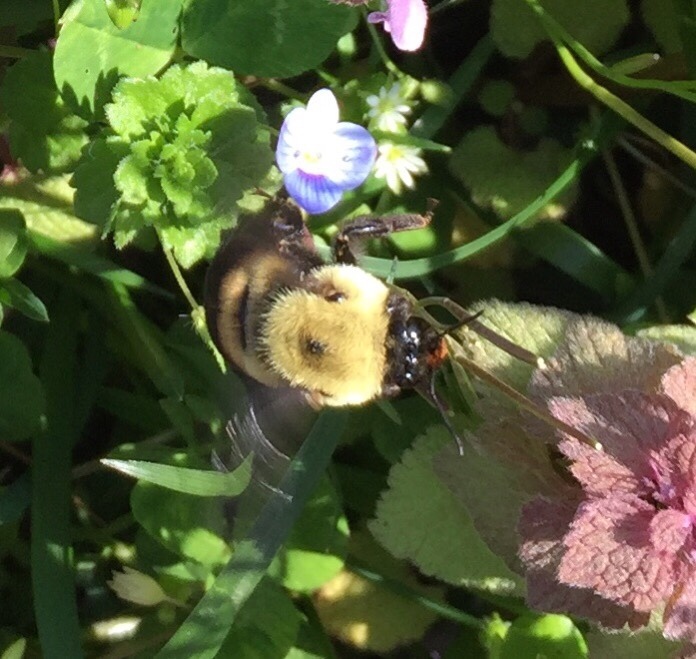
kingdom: Animalia
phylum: Arthropoda
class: Insecta
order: Hymenoptera
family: Apidae
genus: Bombus
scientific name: Bombus griseocollis
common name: Brown-belted bumble bee
